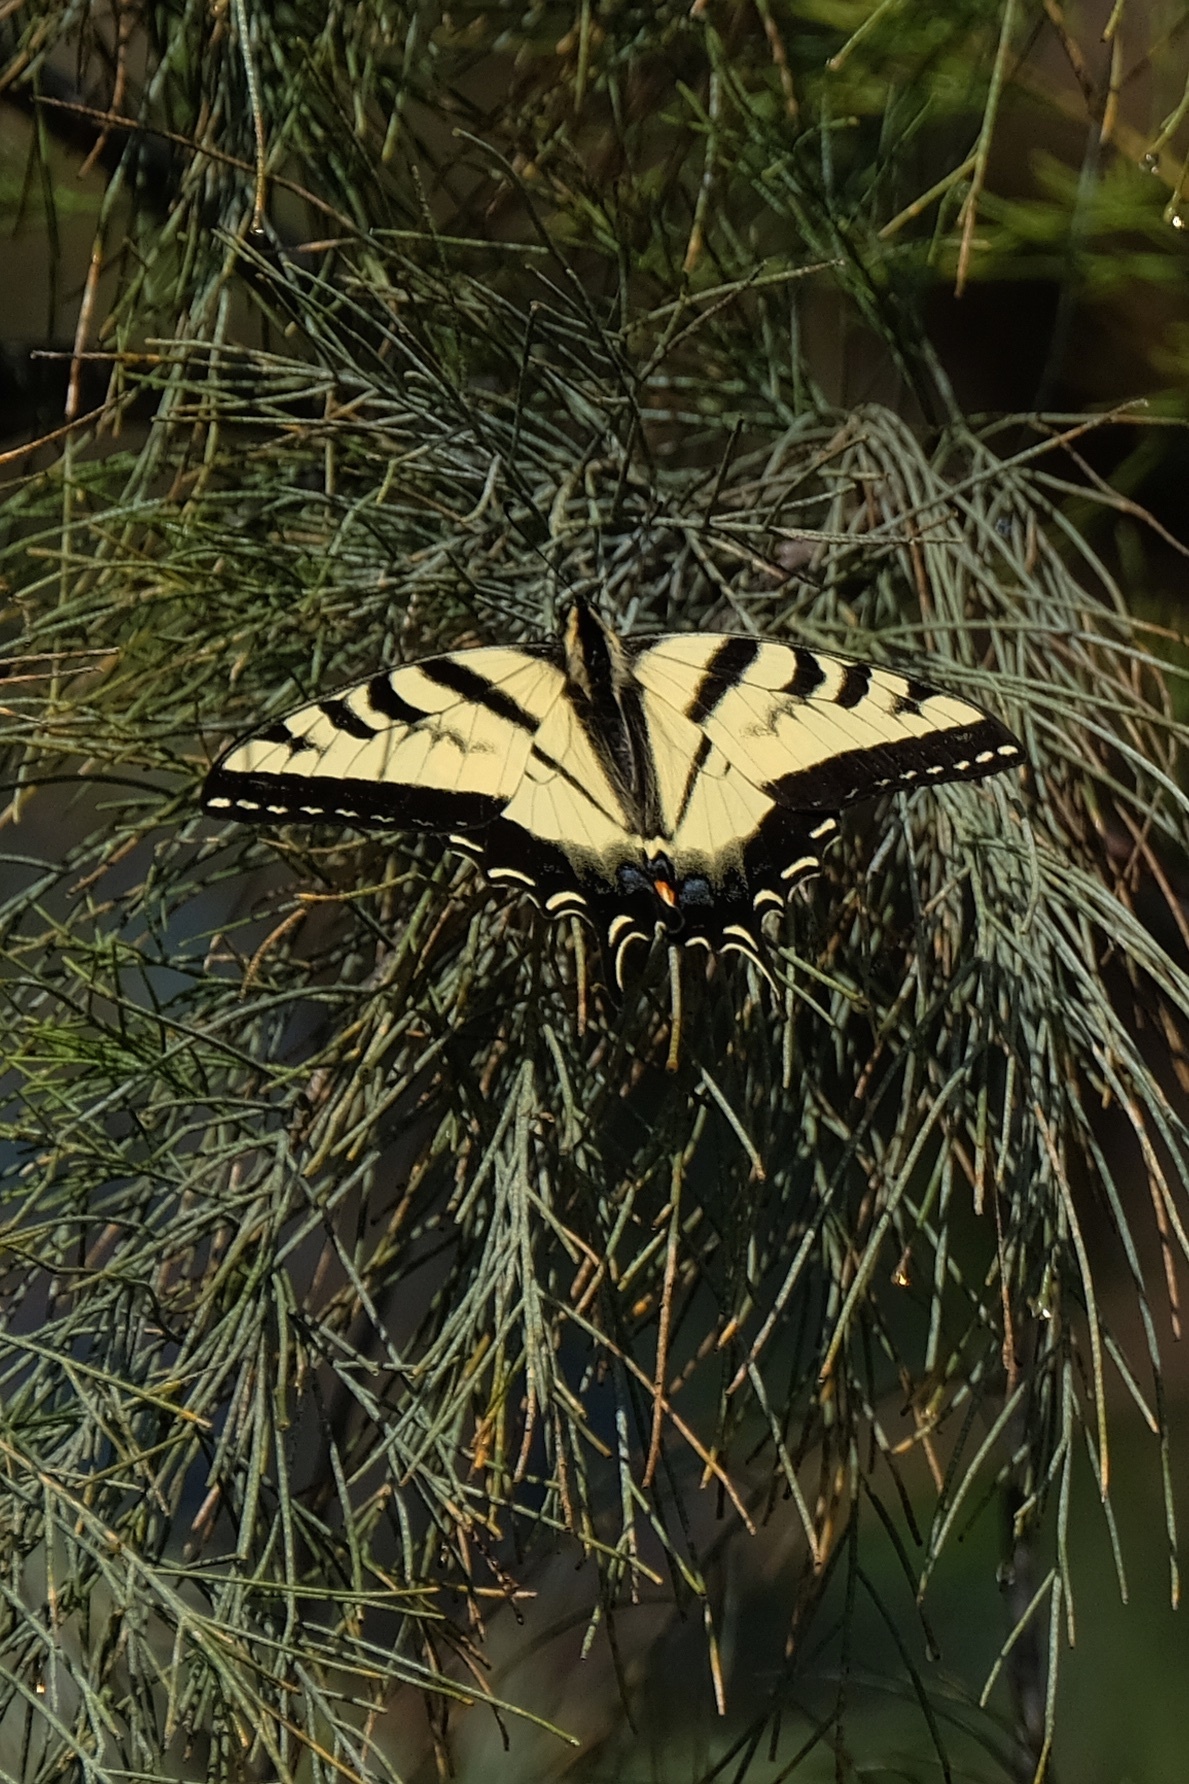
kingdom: Animalia
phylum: Arthropoda
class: Insecta
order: Lepidoptera
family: Papilionidae
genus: Papilio
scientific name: Papilio rutulus
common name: Western tiger swallowtail
